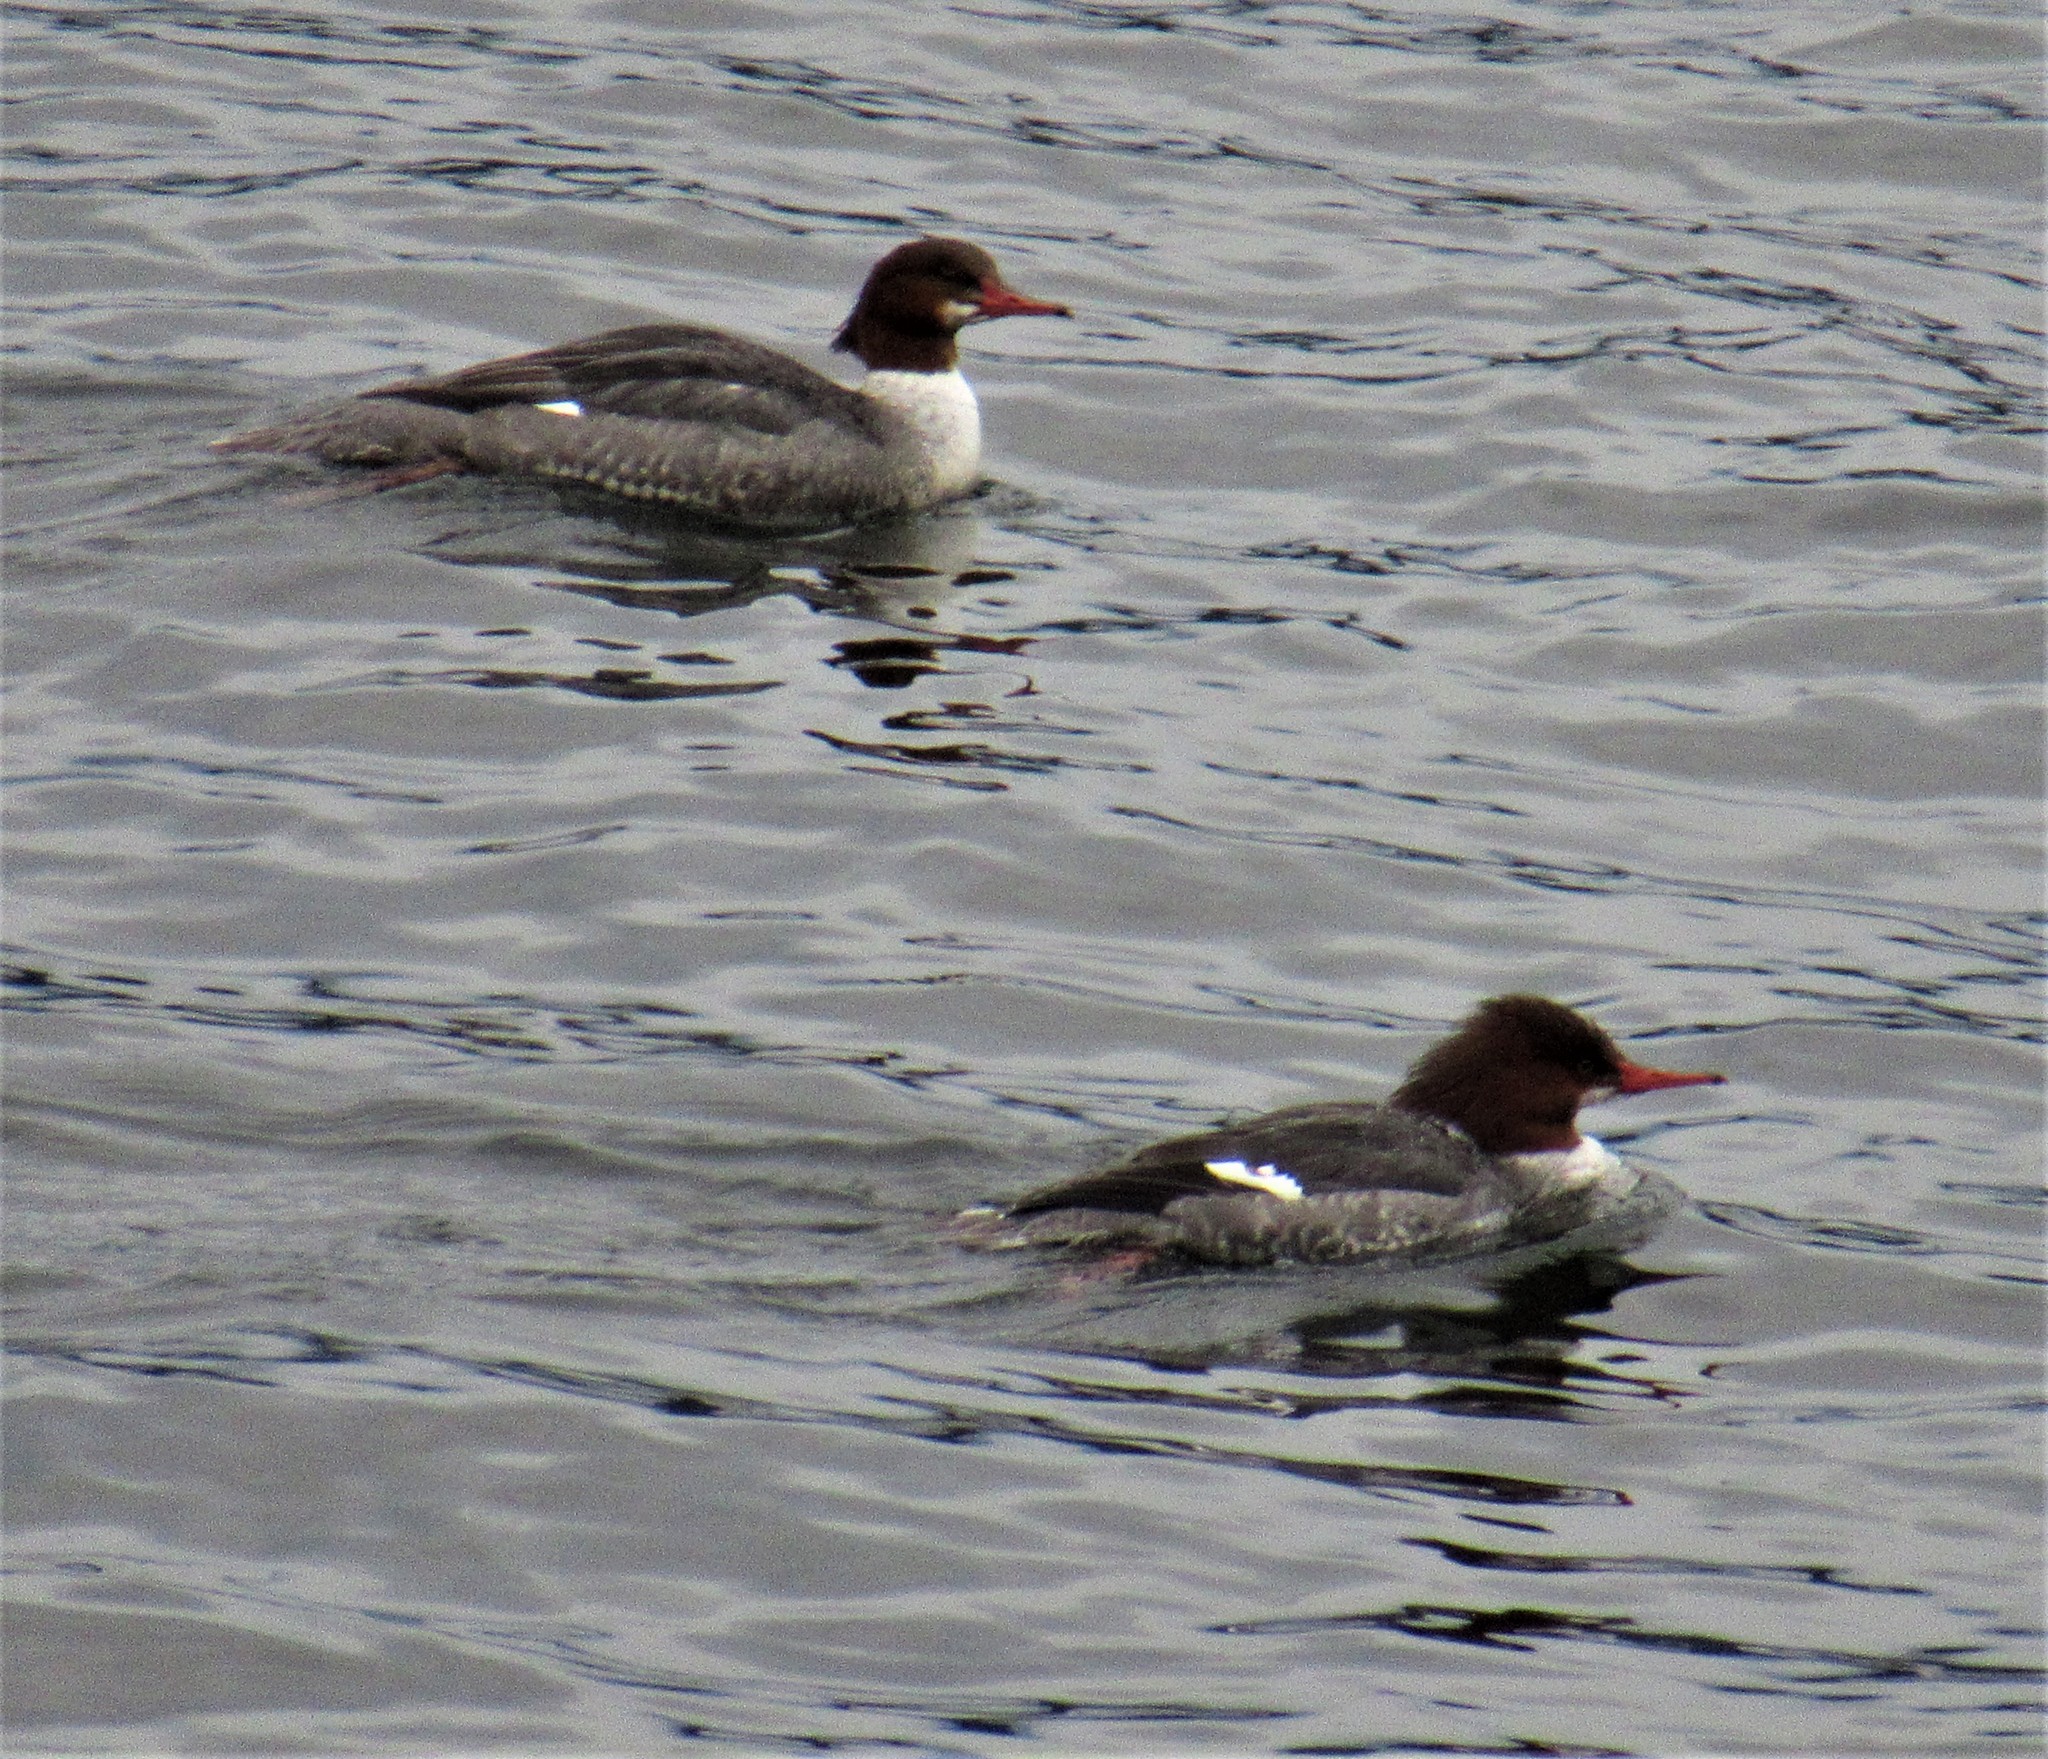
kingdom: Animalia
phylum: Chordata
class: Aves
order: Anseriformes
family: Anatidae
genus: Mergus
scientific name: Mergus merganser
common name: Common merganser
